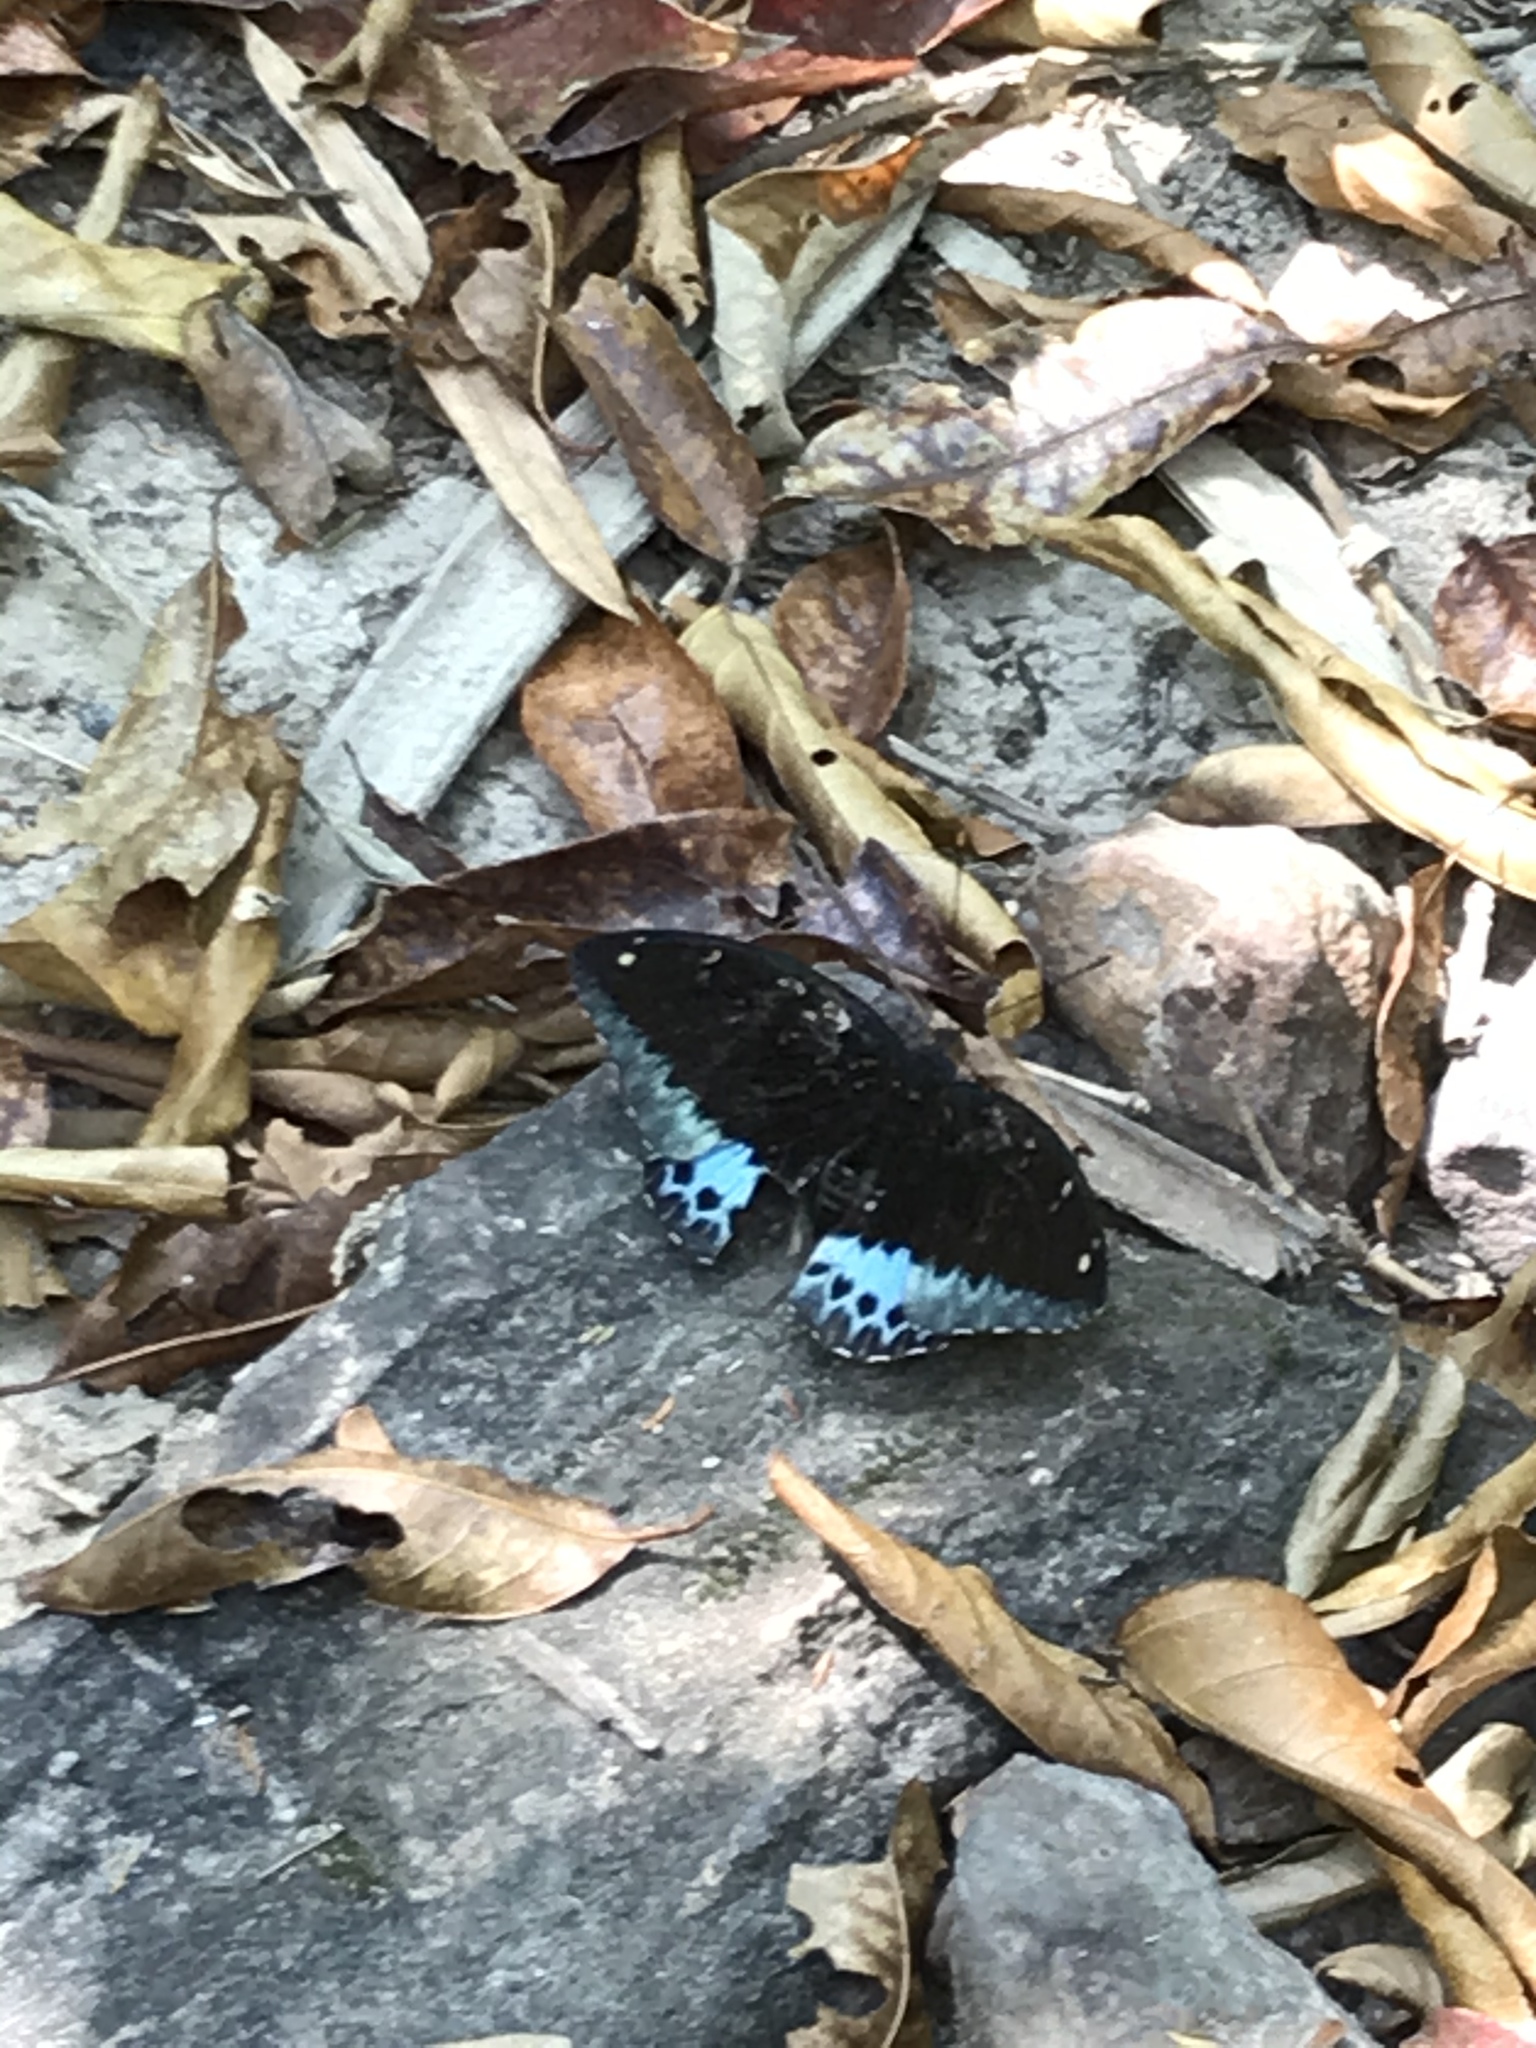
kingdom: Animalia
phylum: Arthropoda
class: Insecta
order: Lepidoptera
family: Nymphalidae
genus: Lexias
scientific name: Lexias pardalis
